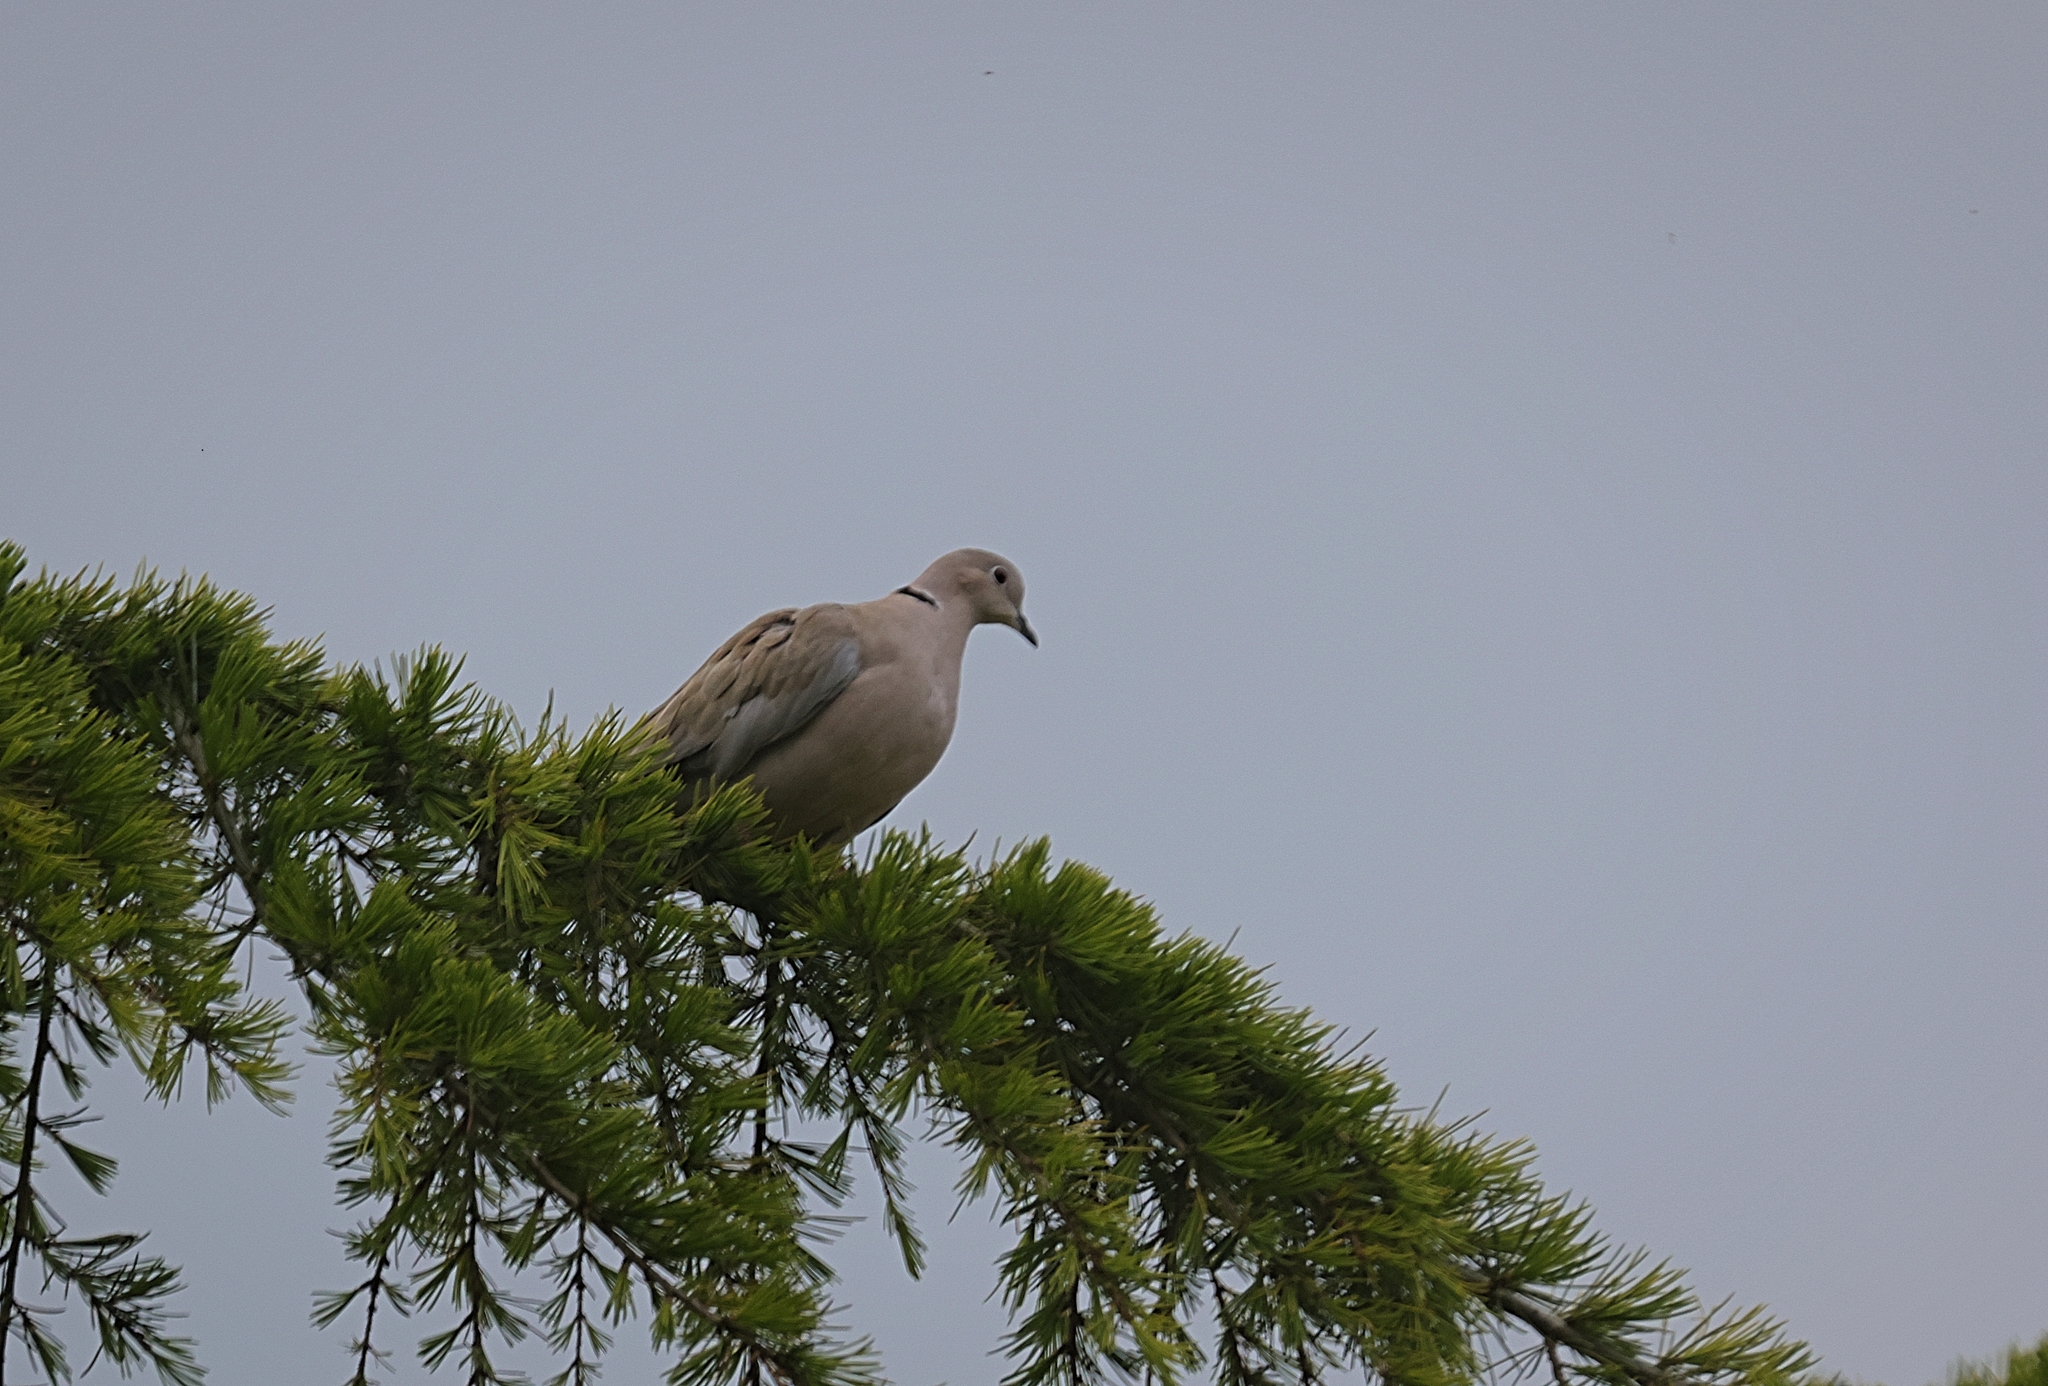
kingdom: Animalia
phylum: Chordata
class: Aves
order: Columbiformes
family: Columbidae
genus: Streptopelia
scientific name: Streptopelia decaocto
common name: Eurasian collared dove
